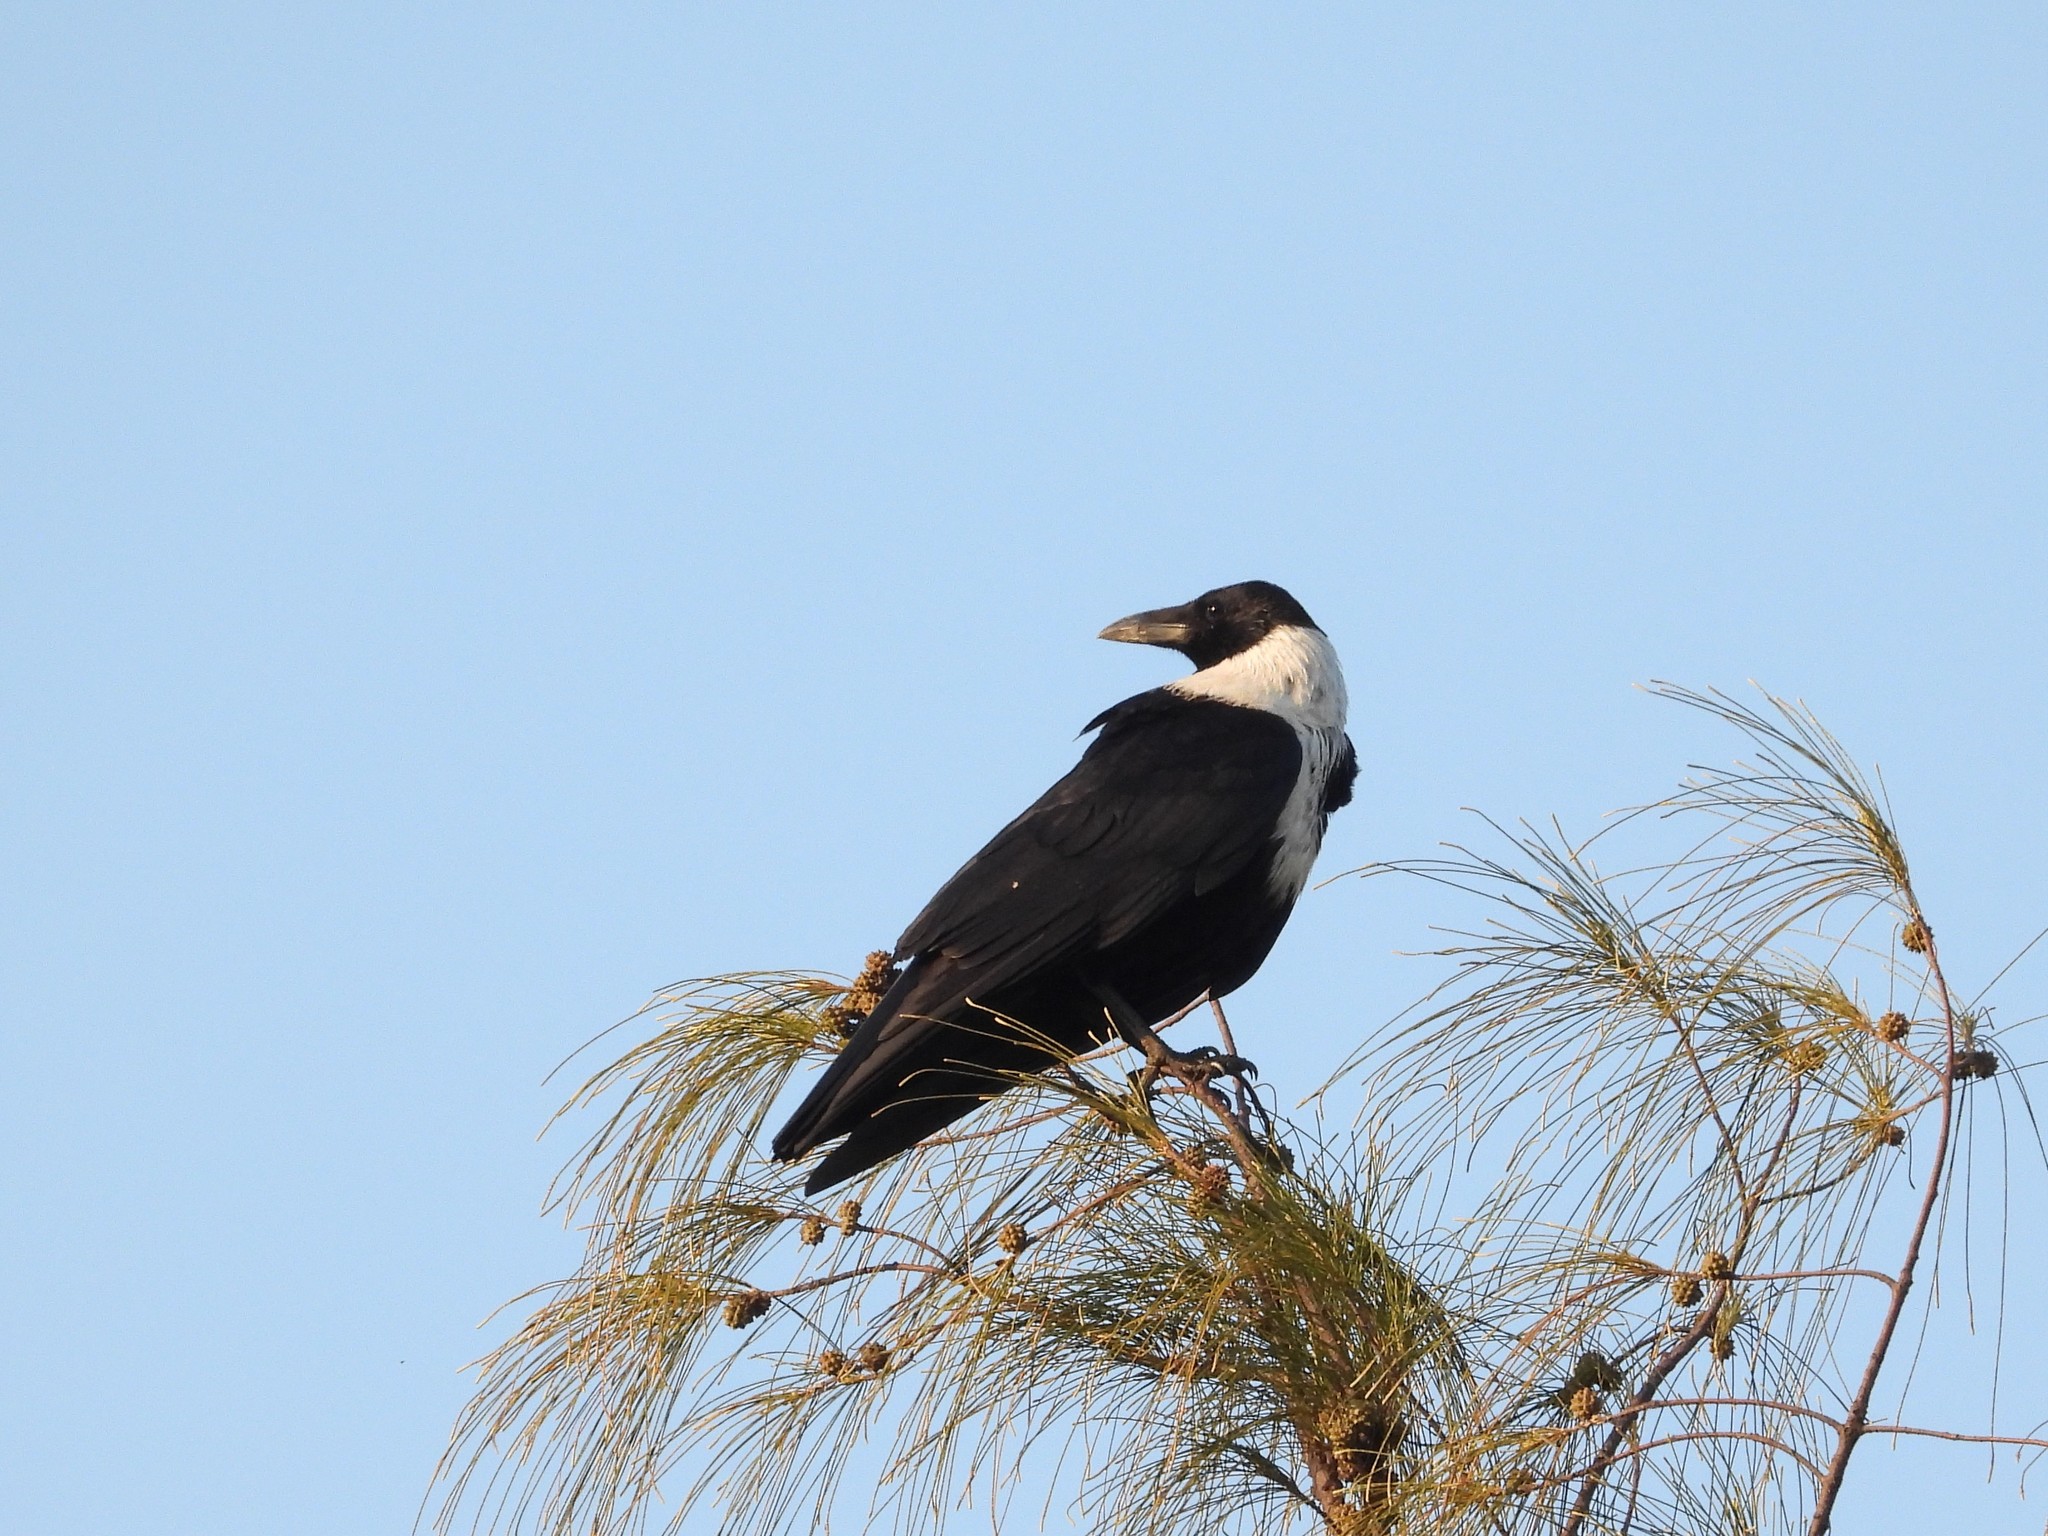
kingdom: Animalia
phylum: Chordata
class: Aves
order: Passeriformes
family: Corvidae
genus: Corvus
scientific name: Corvus pectoralis
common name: Collared crow
